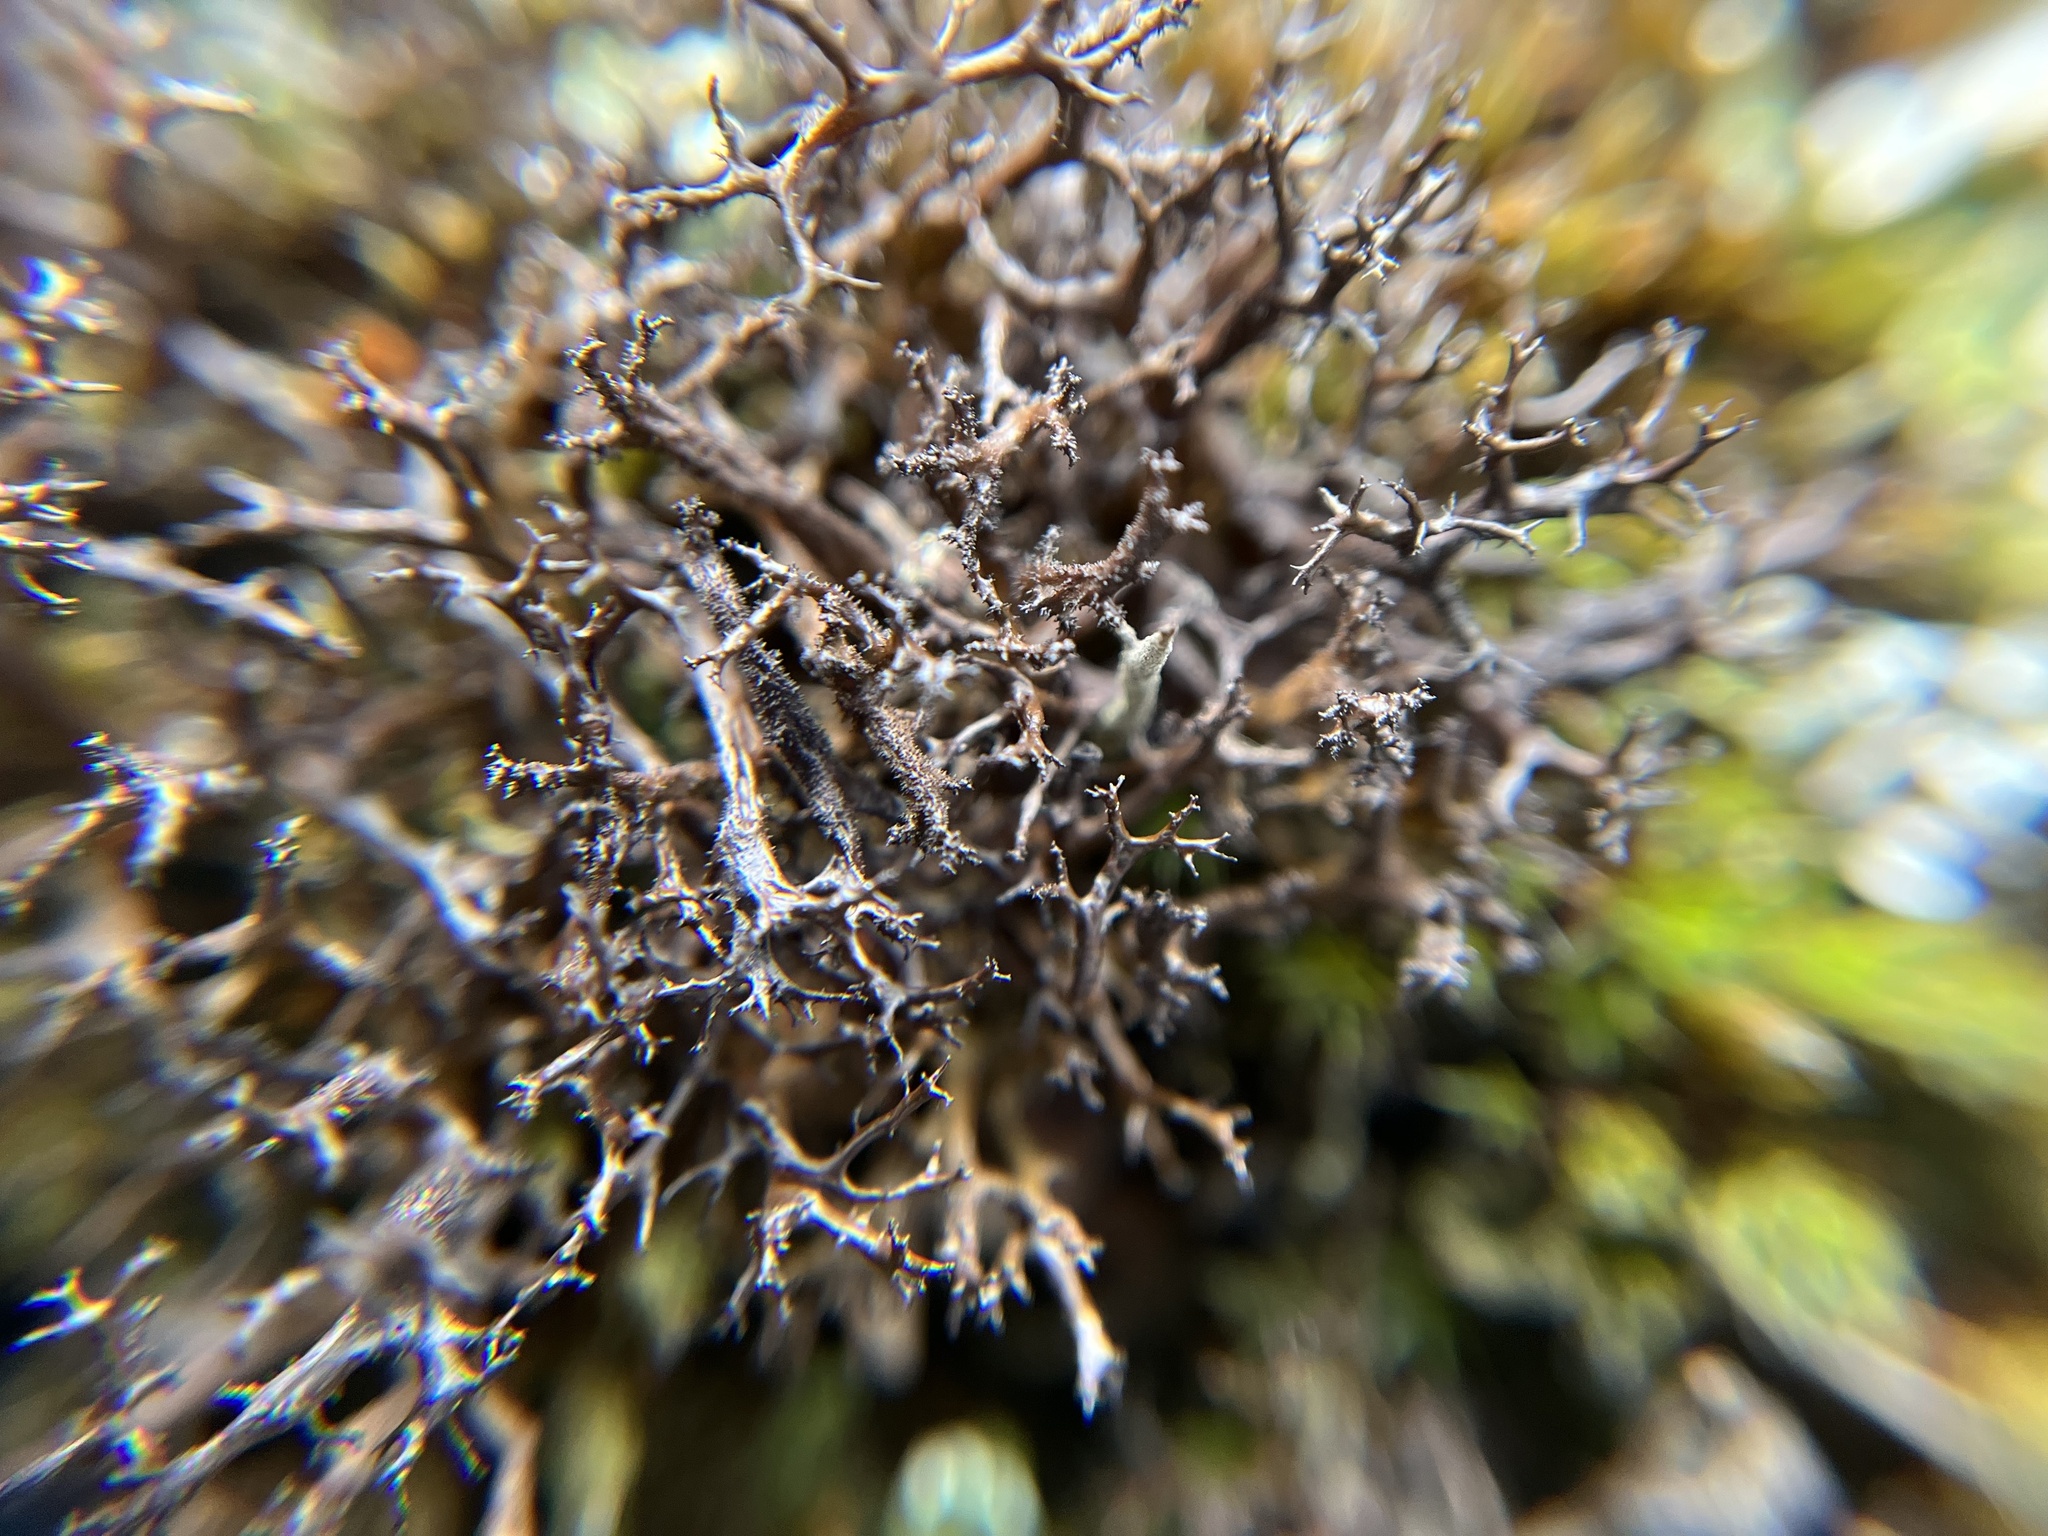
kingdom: Fungi
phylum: Ascomycota
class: Lecanoromycetes
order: Lecanorales
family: Parmeliaceae
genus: Cetraria
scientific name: Cetraria aculeata
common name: Spiny heath lichen
